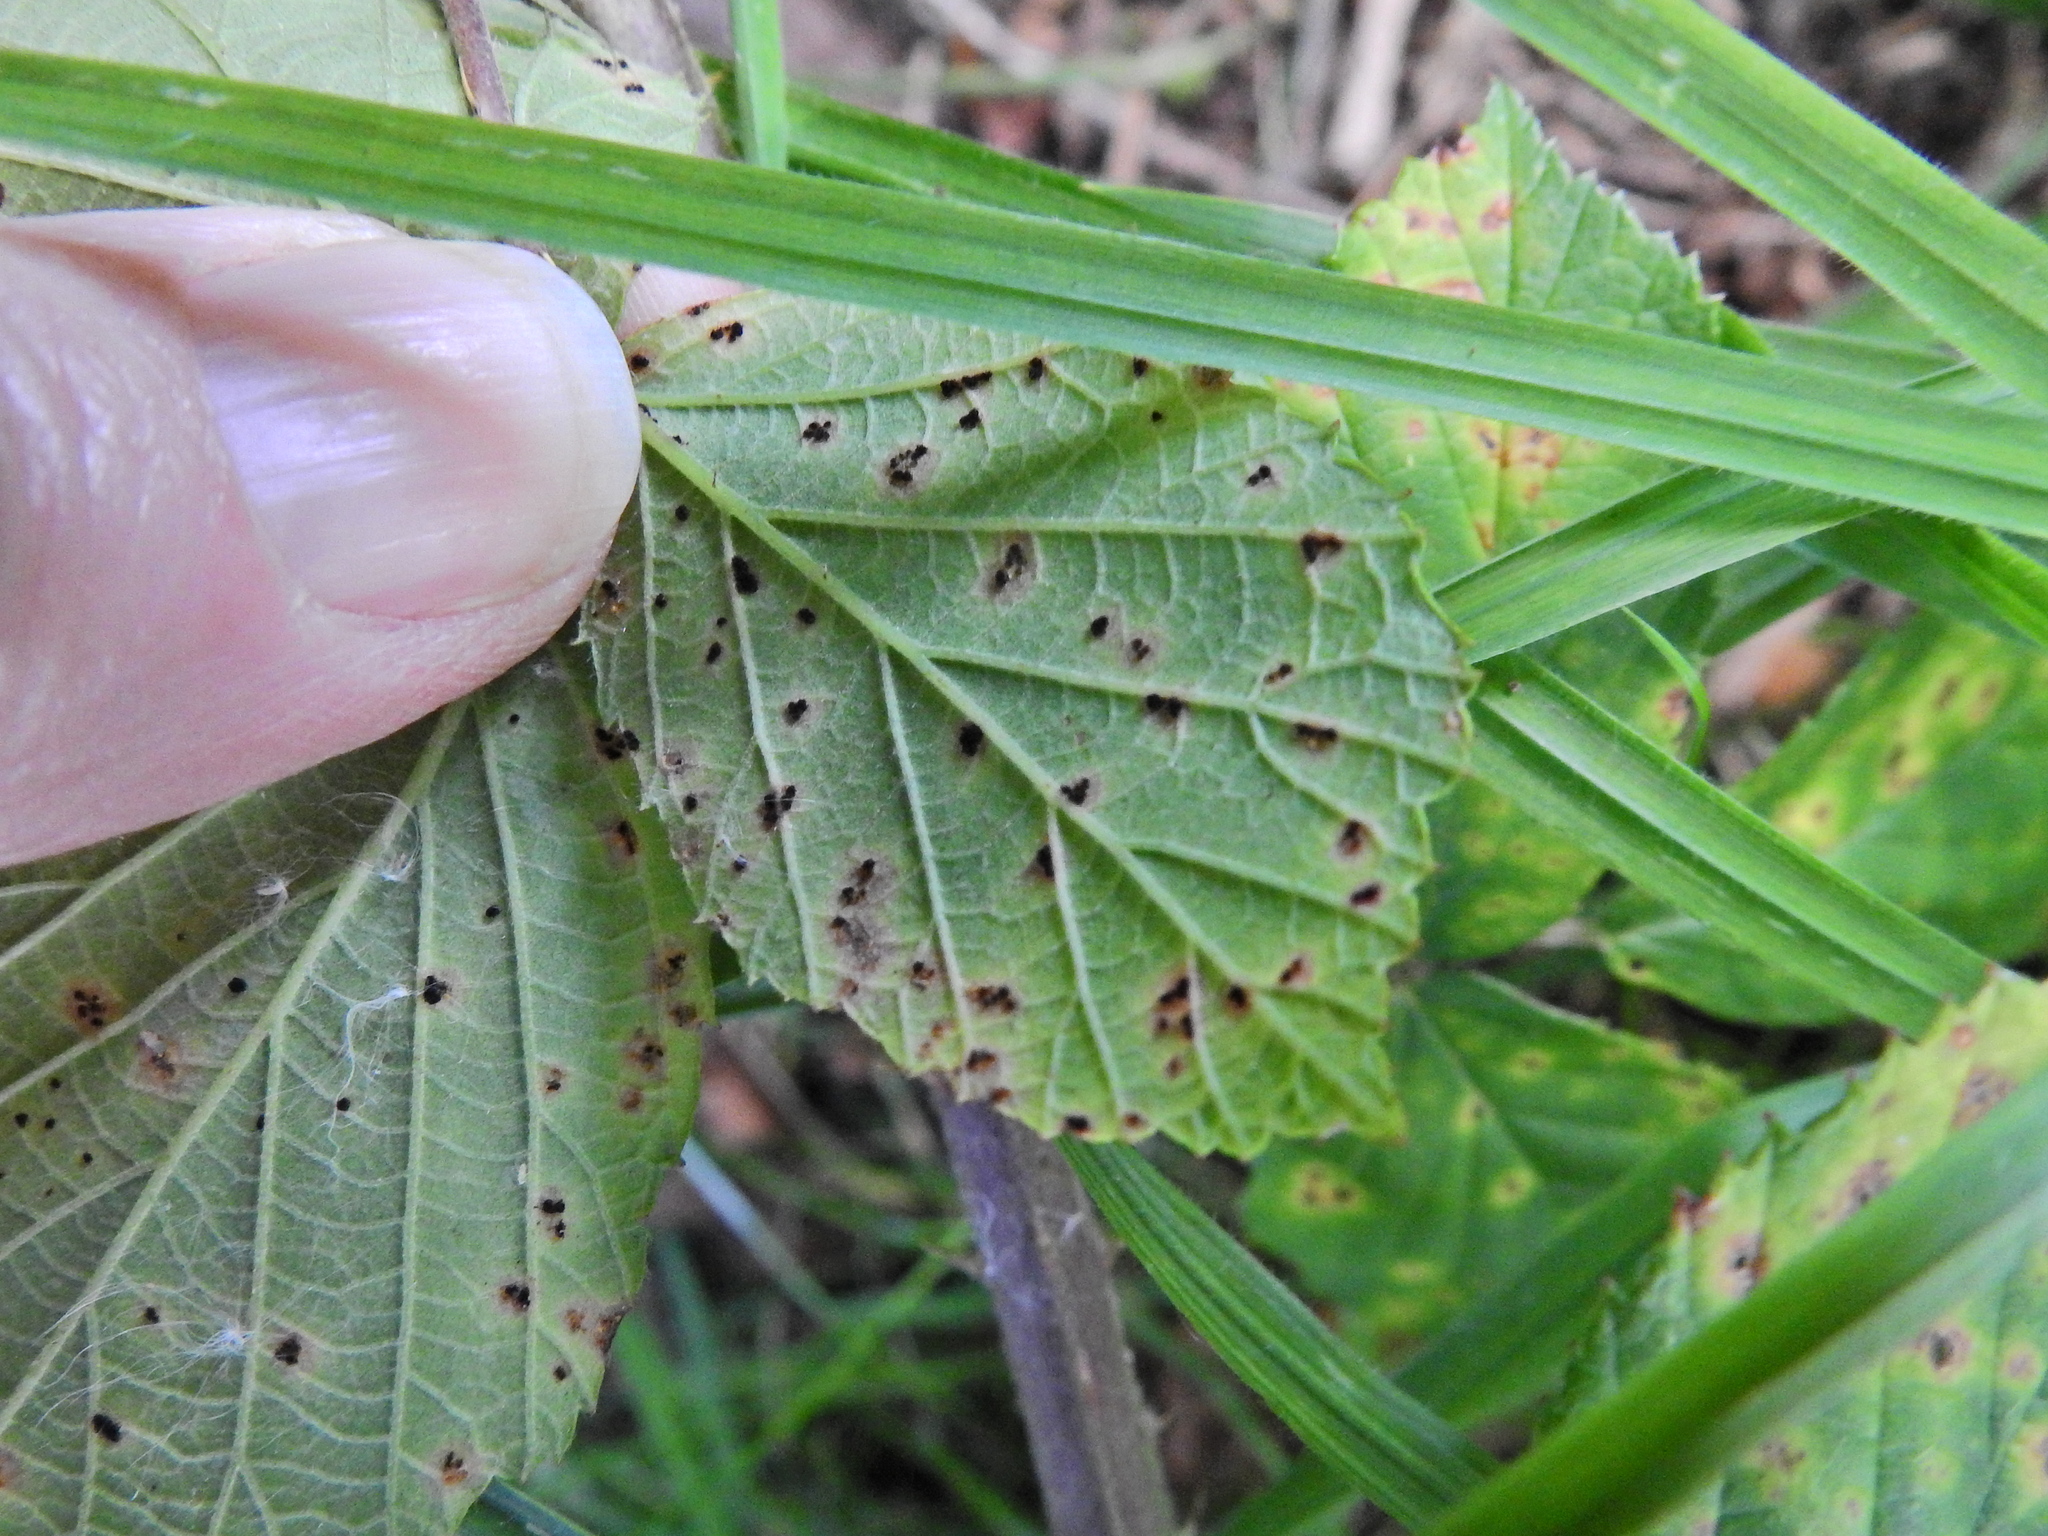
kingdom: Fungi
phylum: Basidiomycota
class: Pucciniomycetes
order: Pucciniales
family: Phragmidiaceae
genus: Phragmidium
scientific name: Phragmidium violaceum
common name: Violet bramble rust
